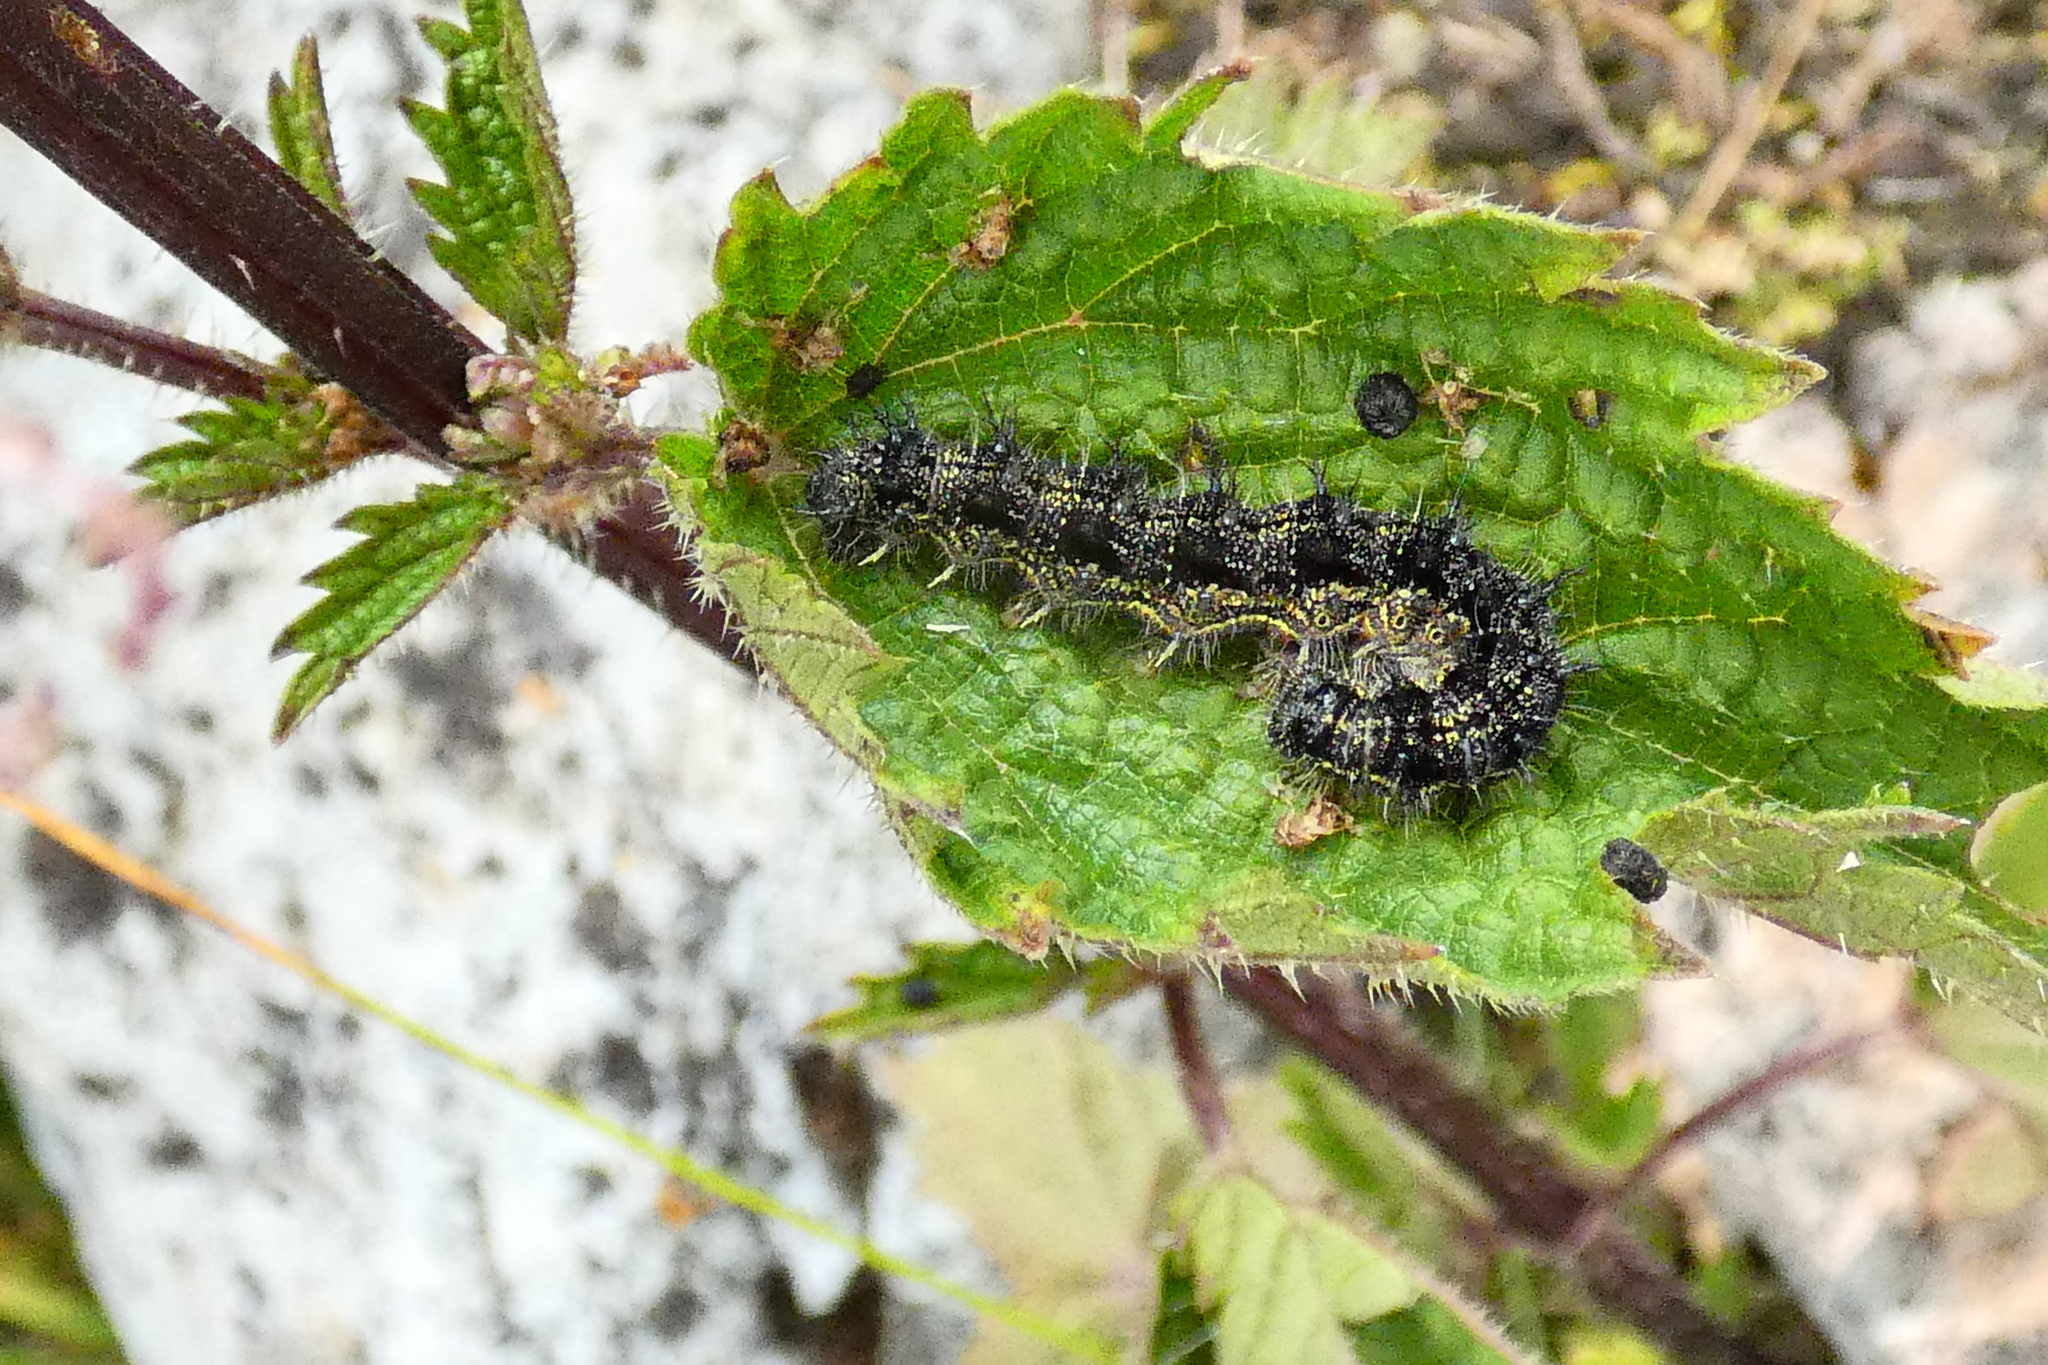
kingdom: Animalia
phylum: Arthropoda
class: Insecta
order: Lepidoptera
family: Nymphalidae
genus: Aglais
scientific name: Aglais urticae
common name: Small tortoiseshell
